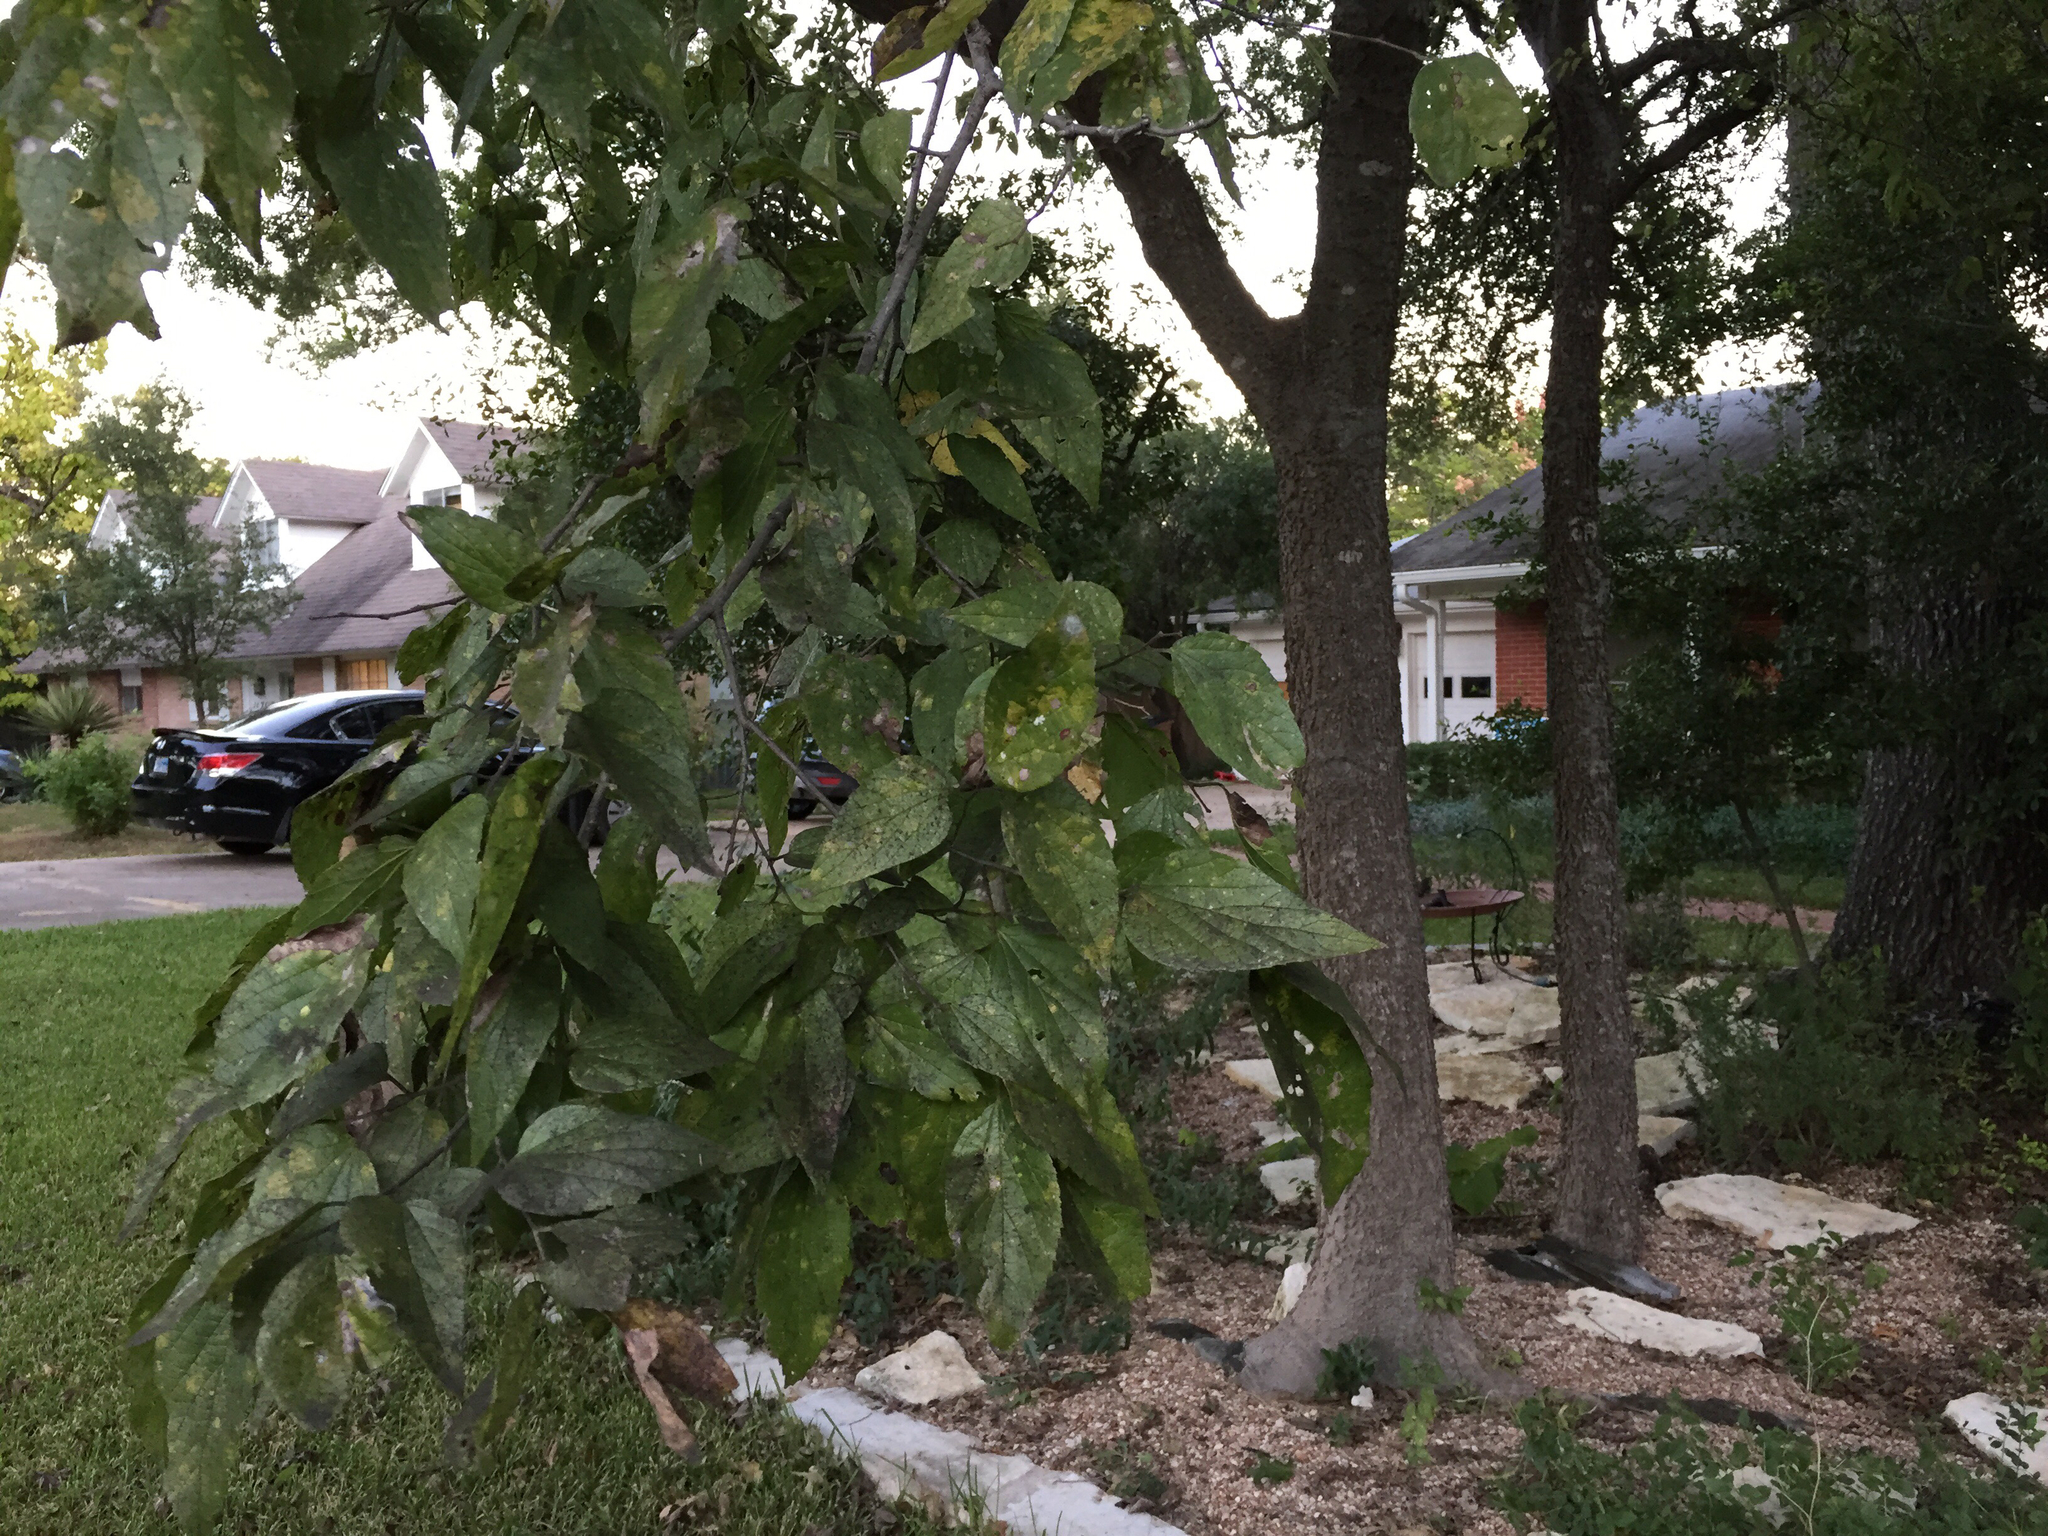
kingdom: Plantae
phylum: Tracheophyta
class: Magnoliopsida
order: Rosales
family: Cannabaceae
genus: Celtis
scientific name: Celtis laevigata
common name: Sugarberry
